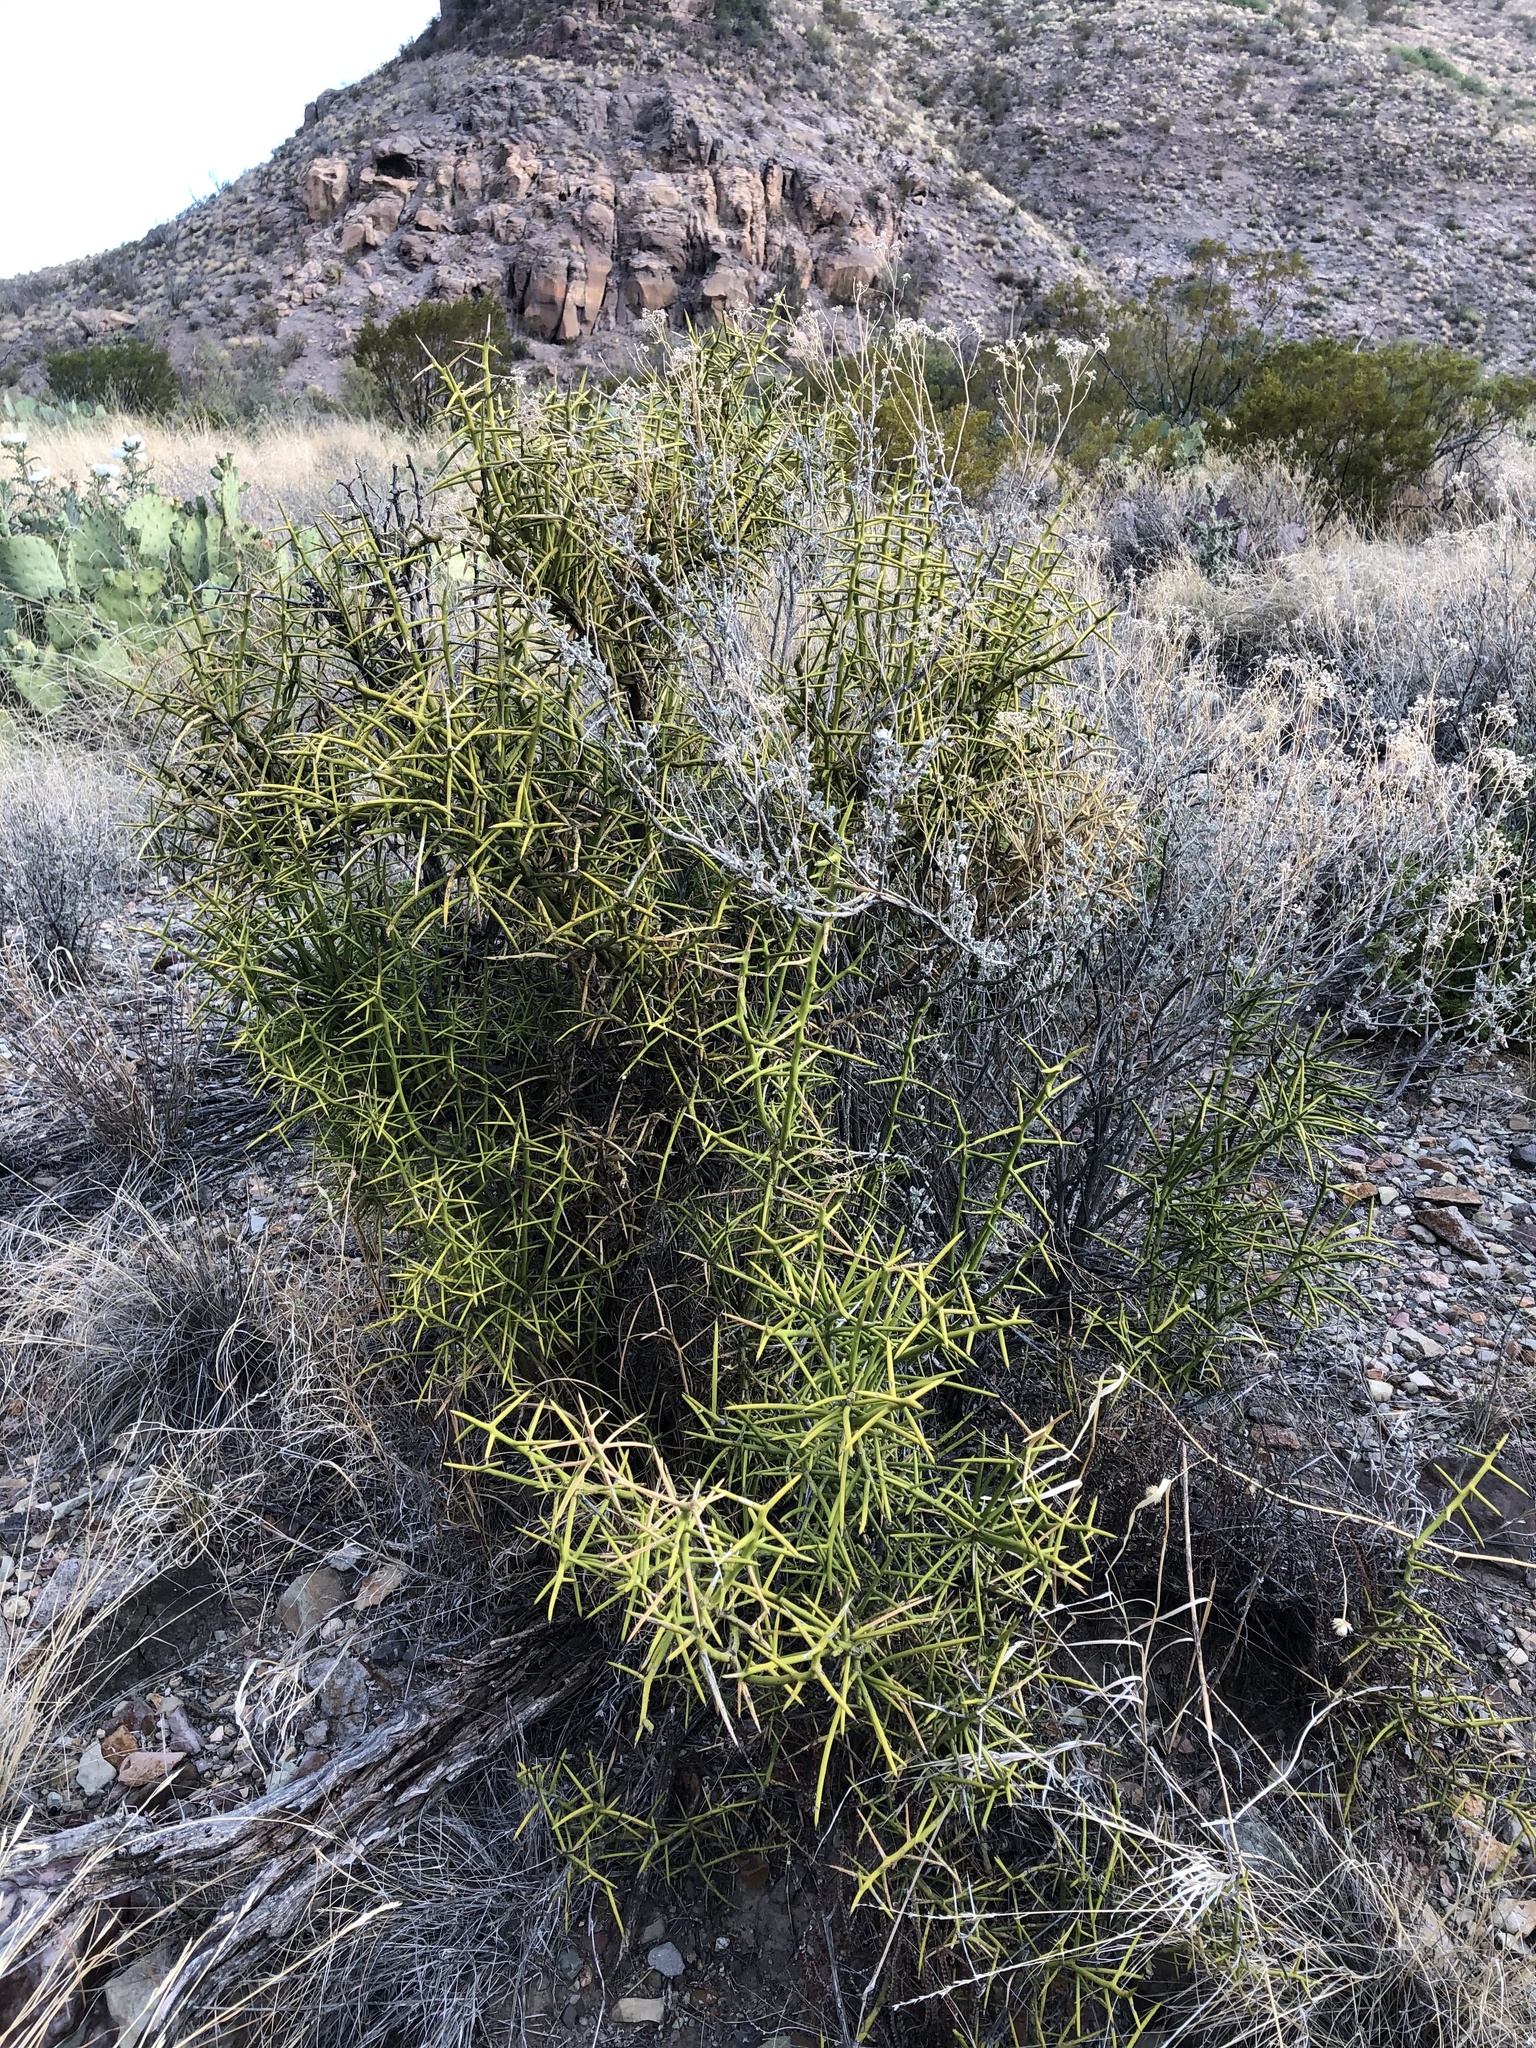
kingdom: Plantae
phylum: Tracheophyta
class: Magnoliopsida
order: Brassicales
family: Koeberliniaceae
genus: Koeberlinia
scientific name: Koeberlinia spinosa
